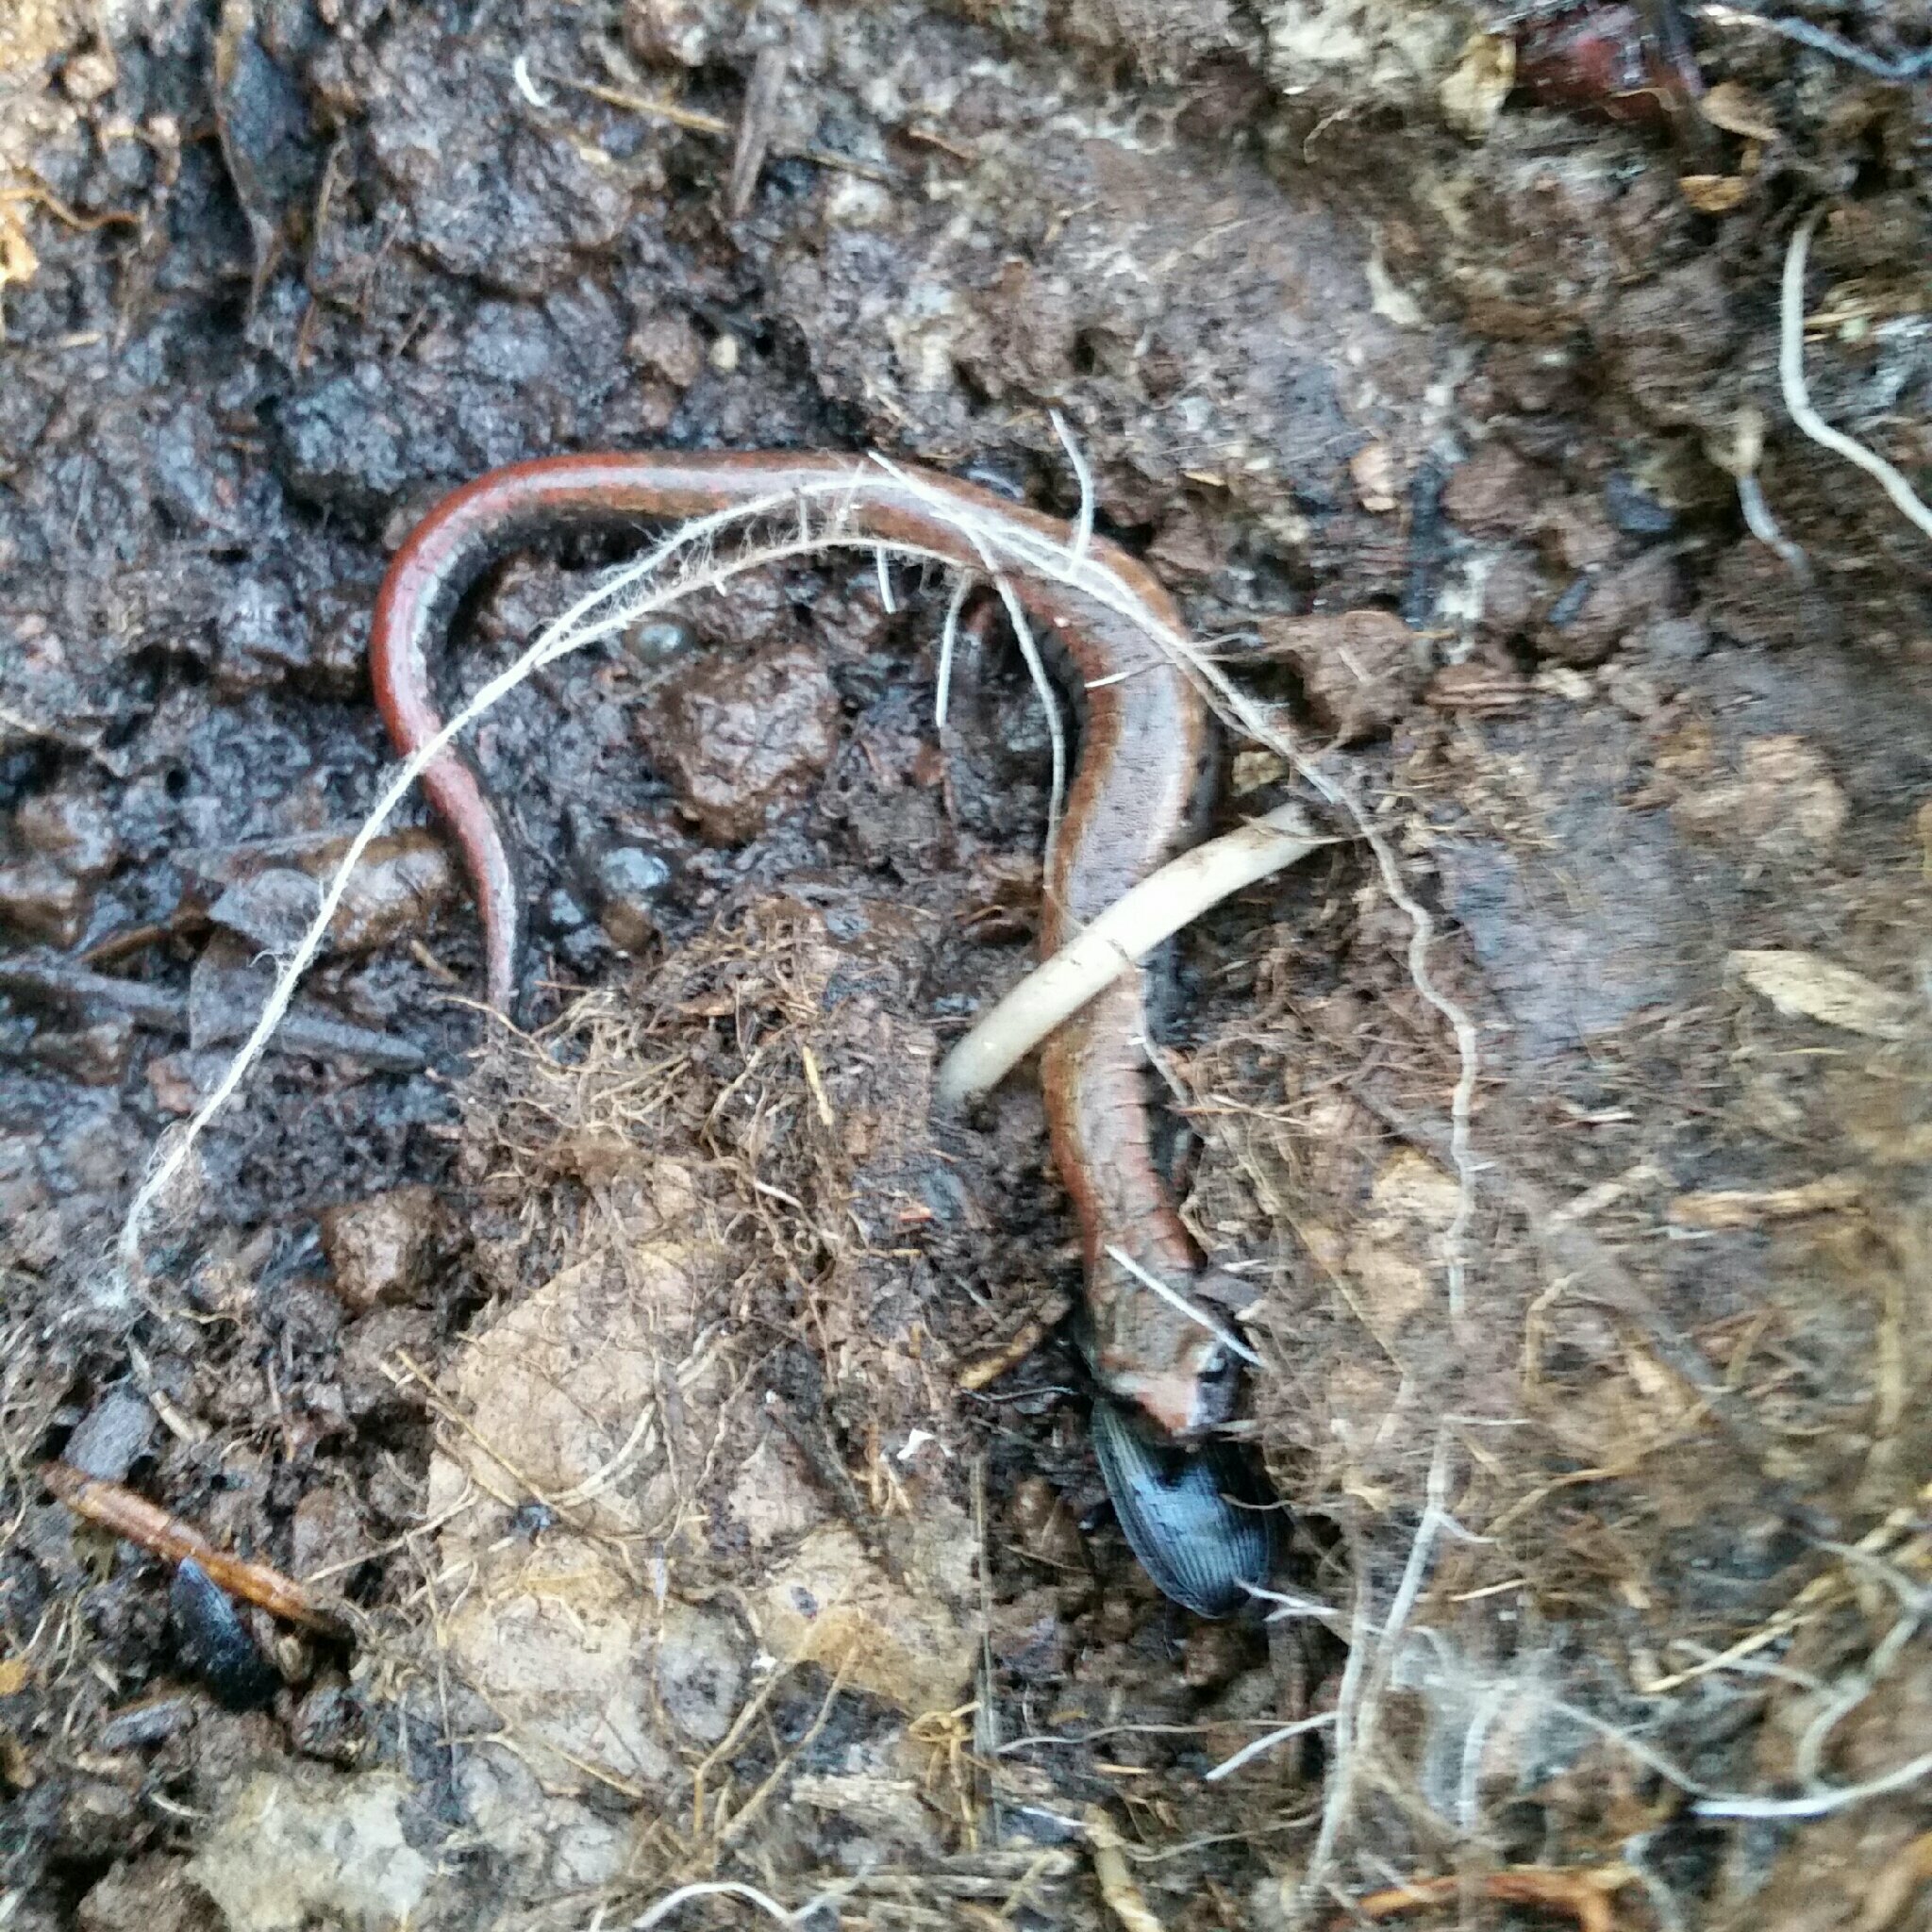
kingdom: Animalia
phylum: Chordata
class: Amphibia
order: Caudata
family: Plethodontidae
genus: Batrachoseps
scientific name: Batrachoseps attenuatus
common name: California slender salamander
